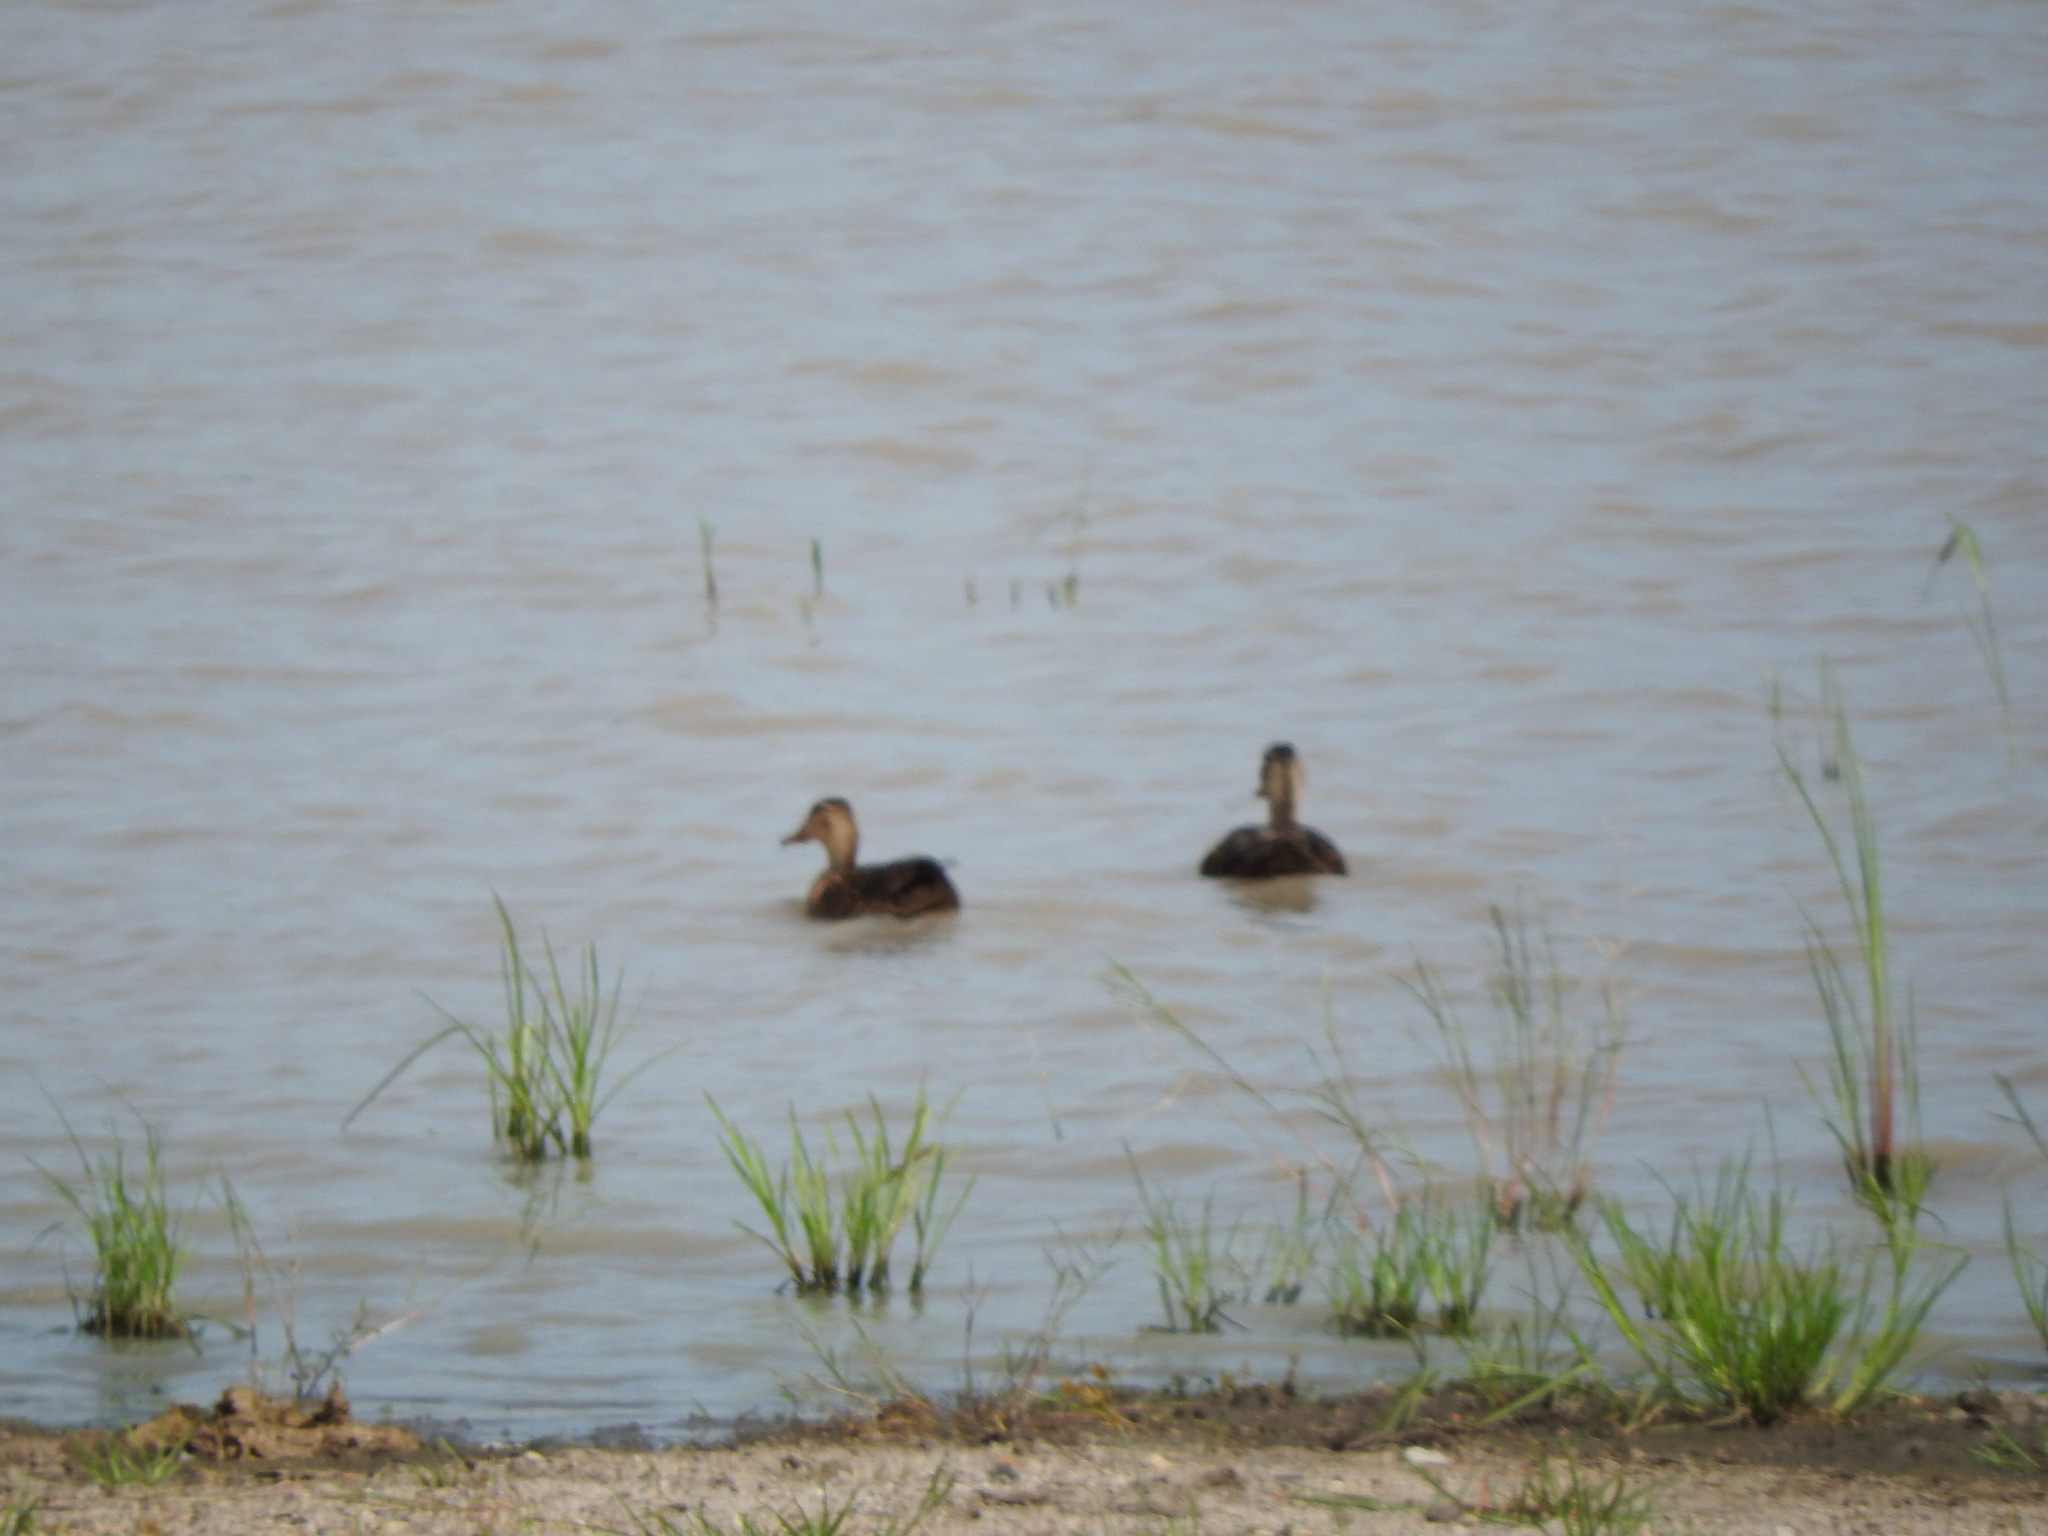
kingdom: Animalia
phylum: Chordata
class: Aves
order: Anseriformes
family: Anatidae
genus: Anas
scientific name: Anas diazi
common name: Mexican duck
